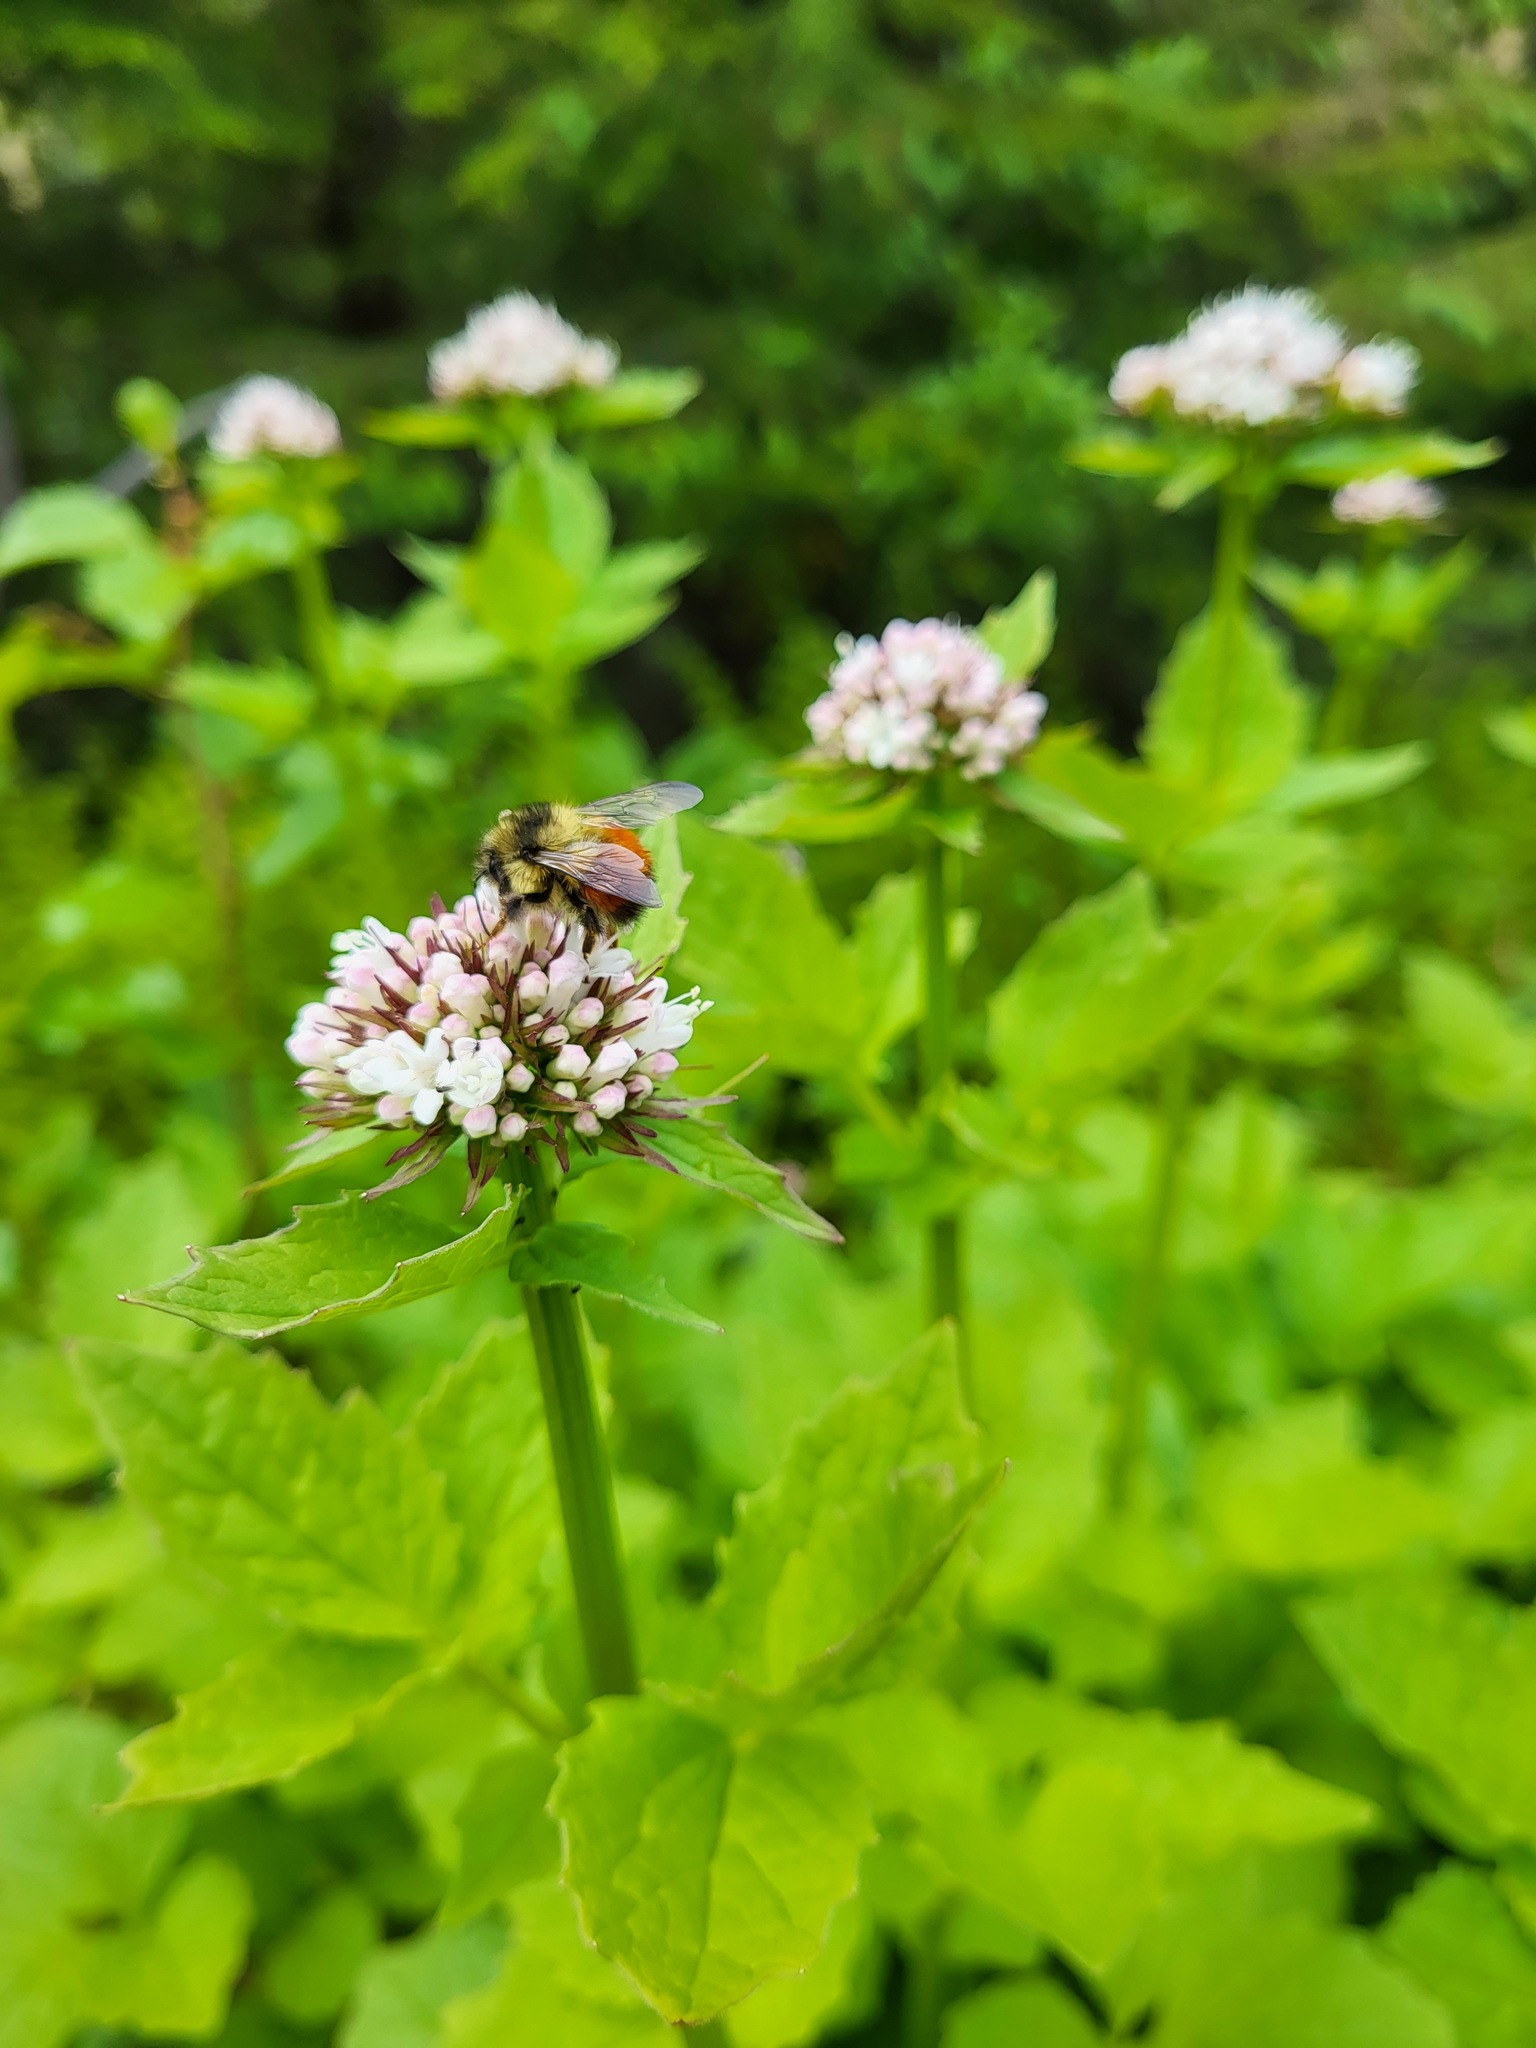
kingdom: Animalia
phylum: Arthropoda
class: Insecta
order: Hymenoptera
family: Apidae
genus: Bombus
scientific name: Bombus melanopygus
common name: Black tail bumble bee
